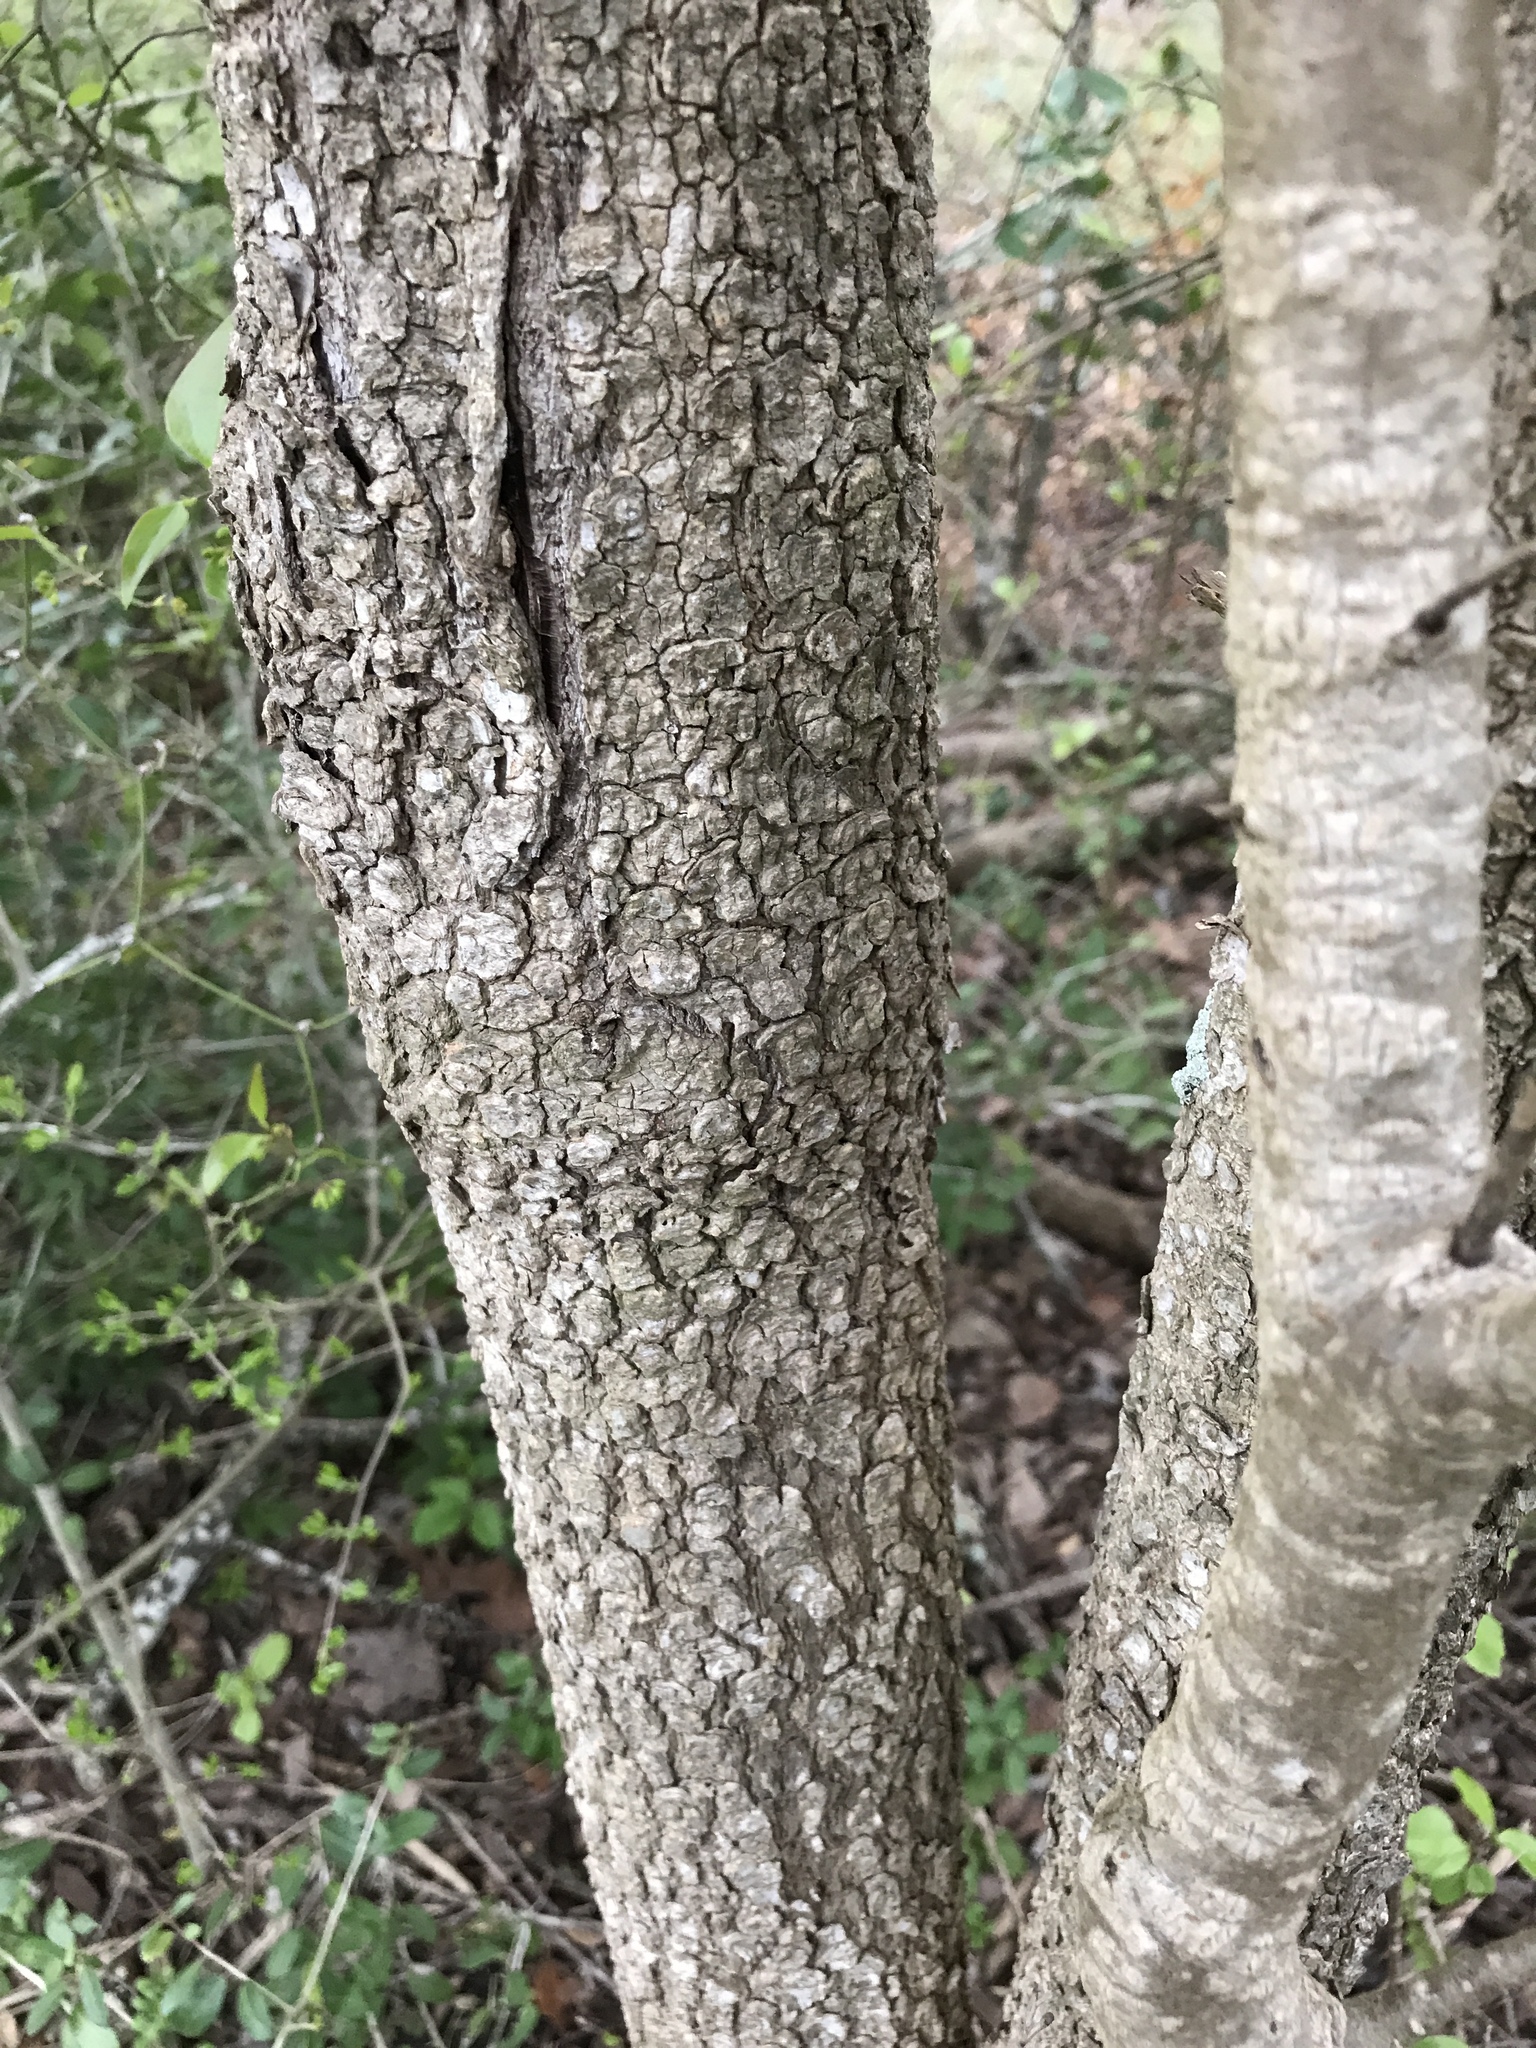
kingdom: Plantae
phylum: Tracheophyta
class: Magnoliopsida
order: Dipsacales
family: Viburnaceae
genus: Viburnum
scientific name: Viburnum rufidulum
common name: Blue haw
